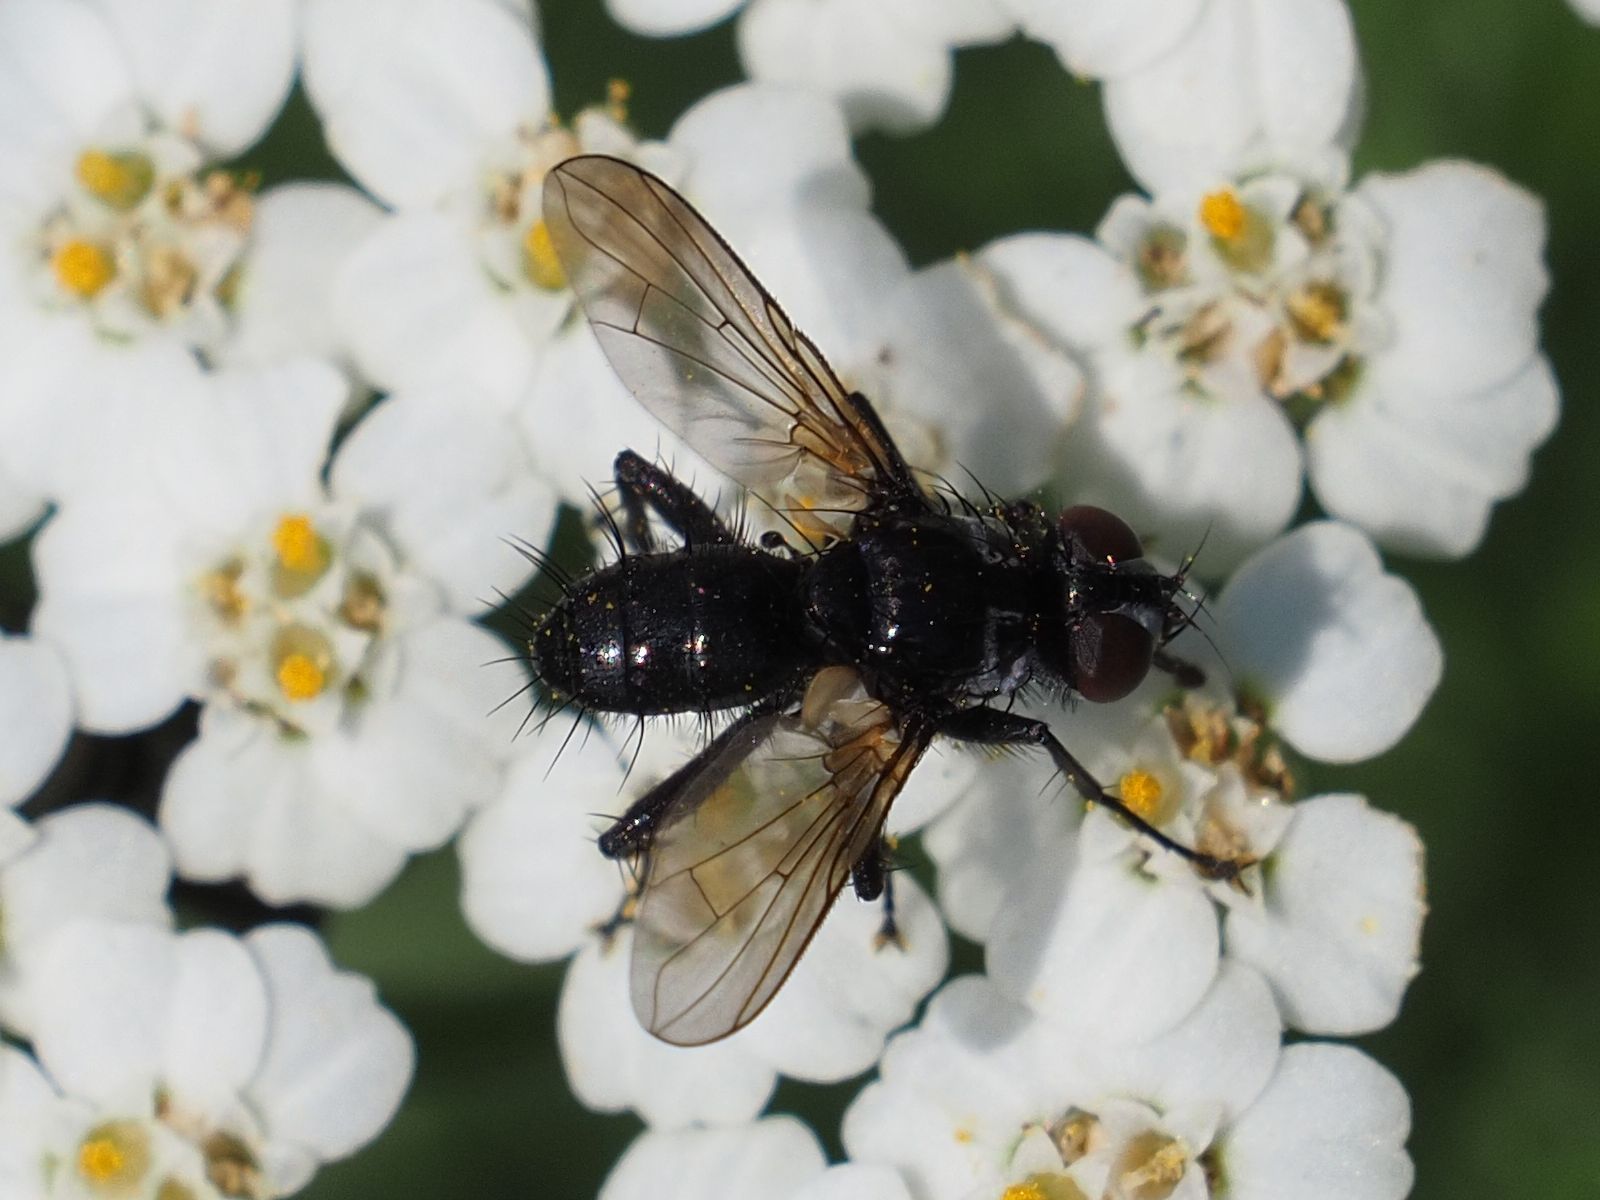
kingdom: Animalia
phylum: Arthropoda
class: Insecta
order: Diptera
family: Tachinidae
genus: Phania
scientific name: Phania funesta
